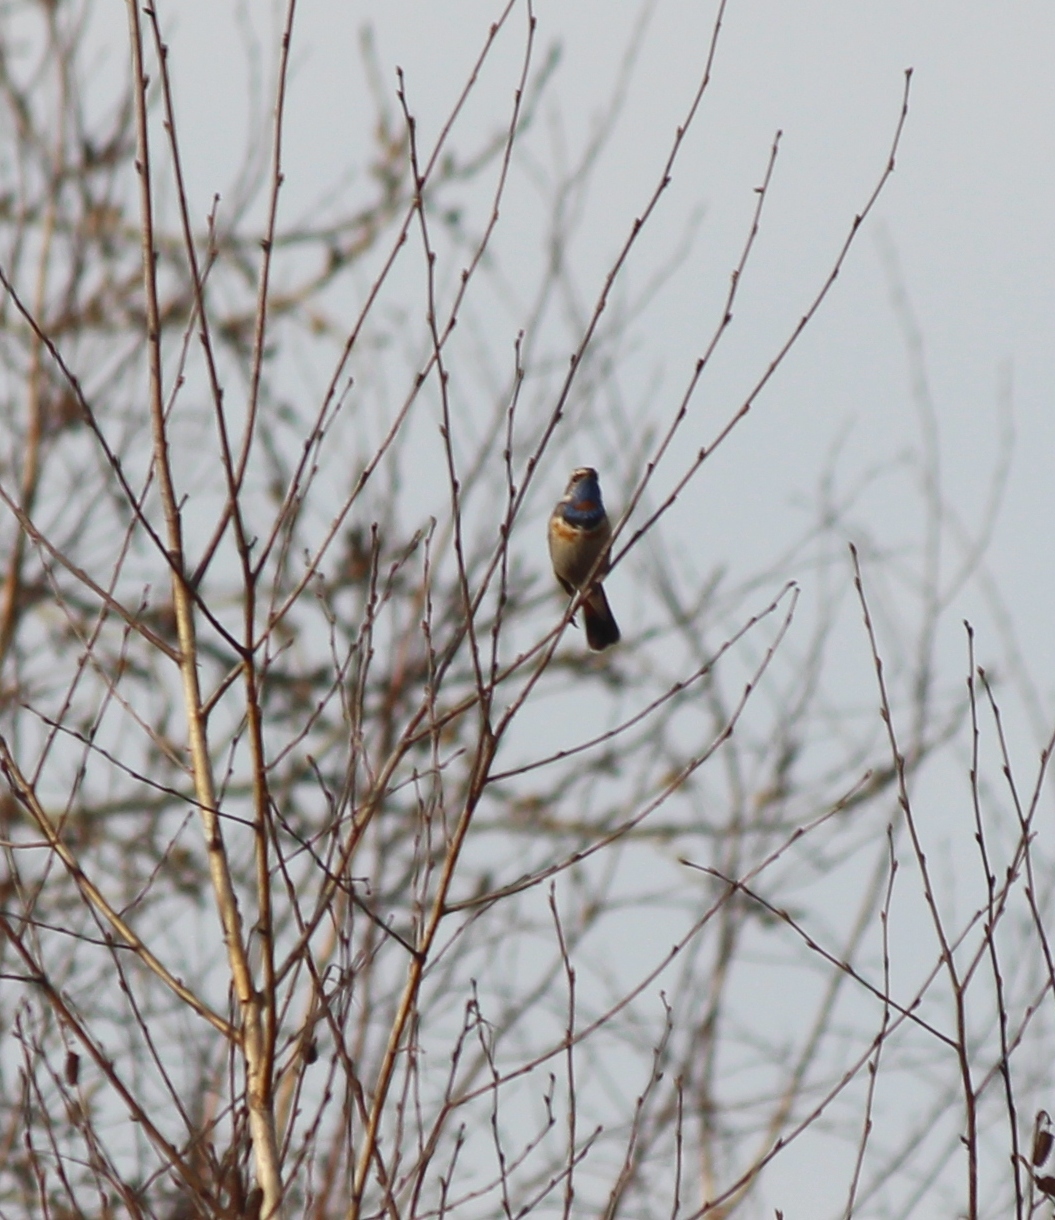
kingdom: Animalia
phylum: Chordata
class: Aves
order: Passeriformes
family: Muscicapidae
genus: Luscinia
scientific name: Luscinia svecica
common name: Bluethroat
